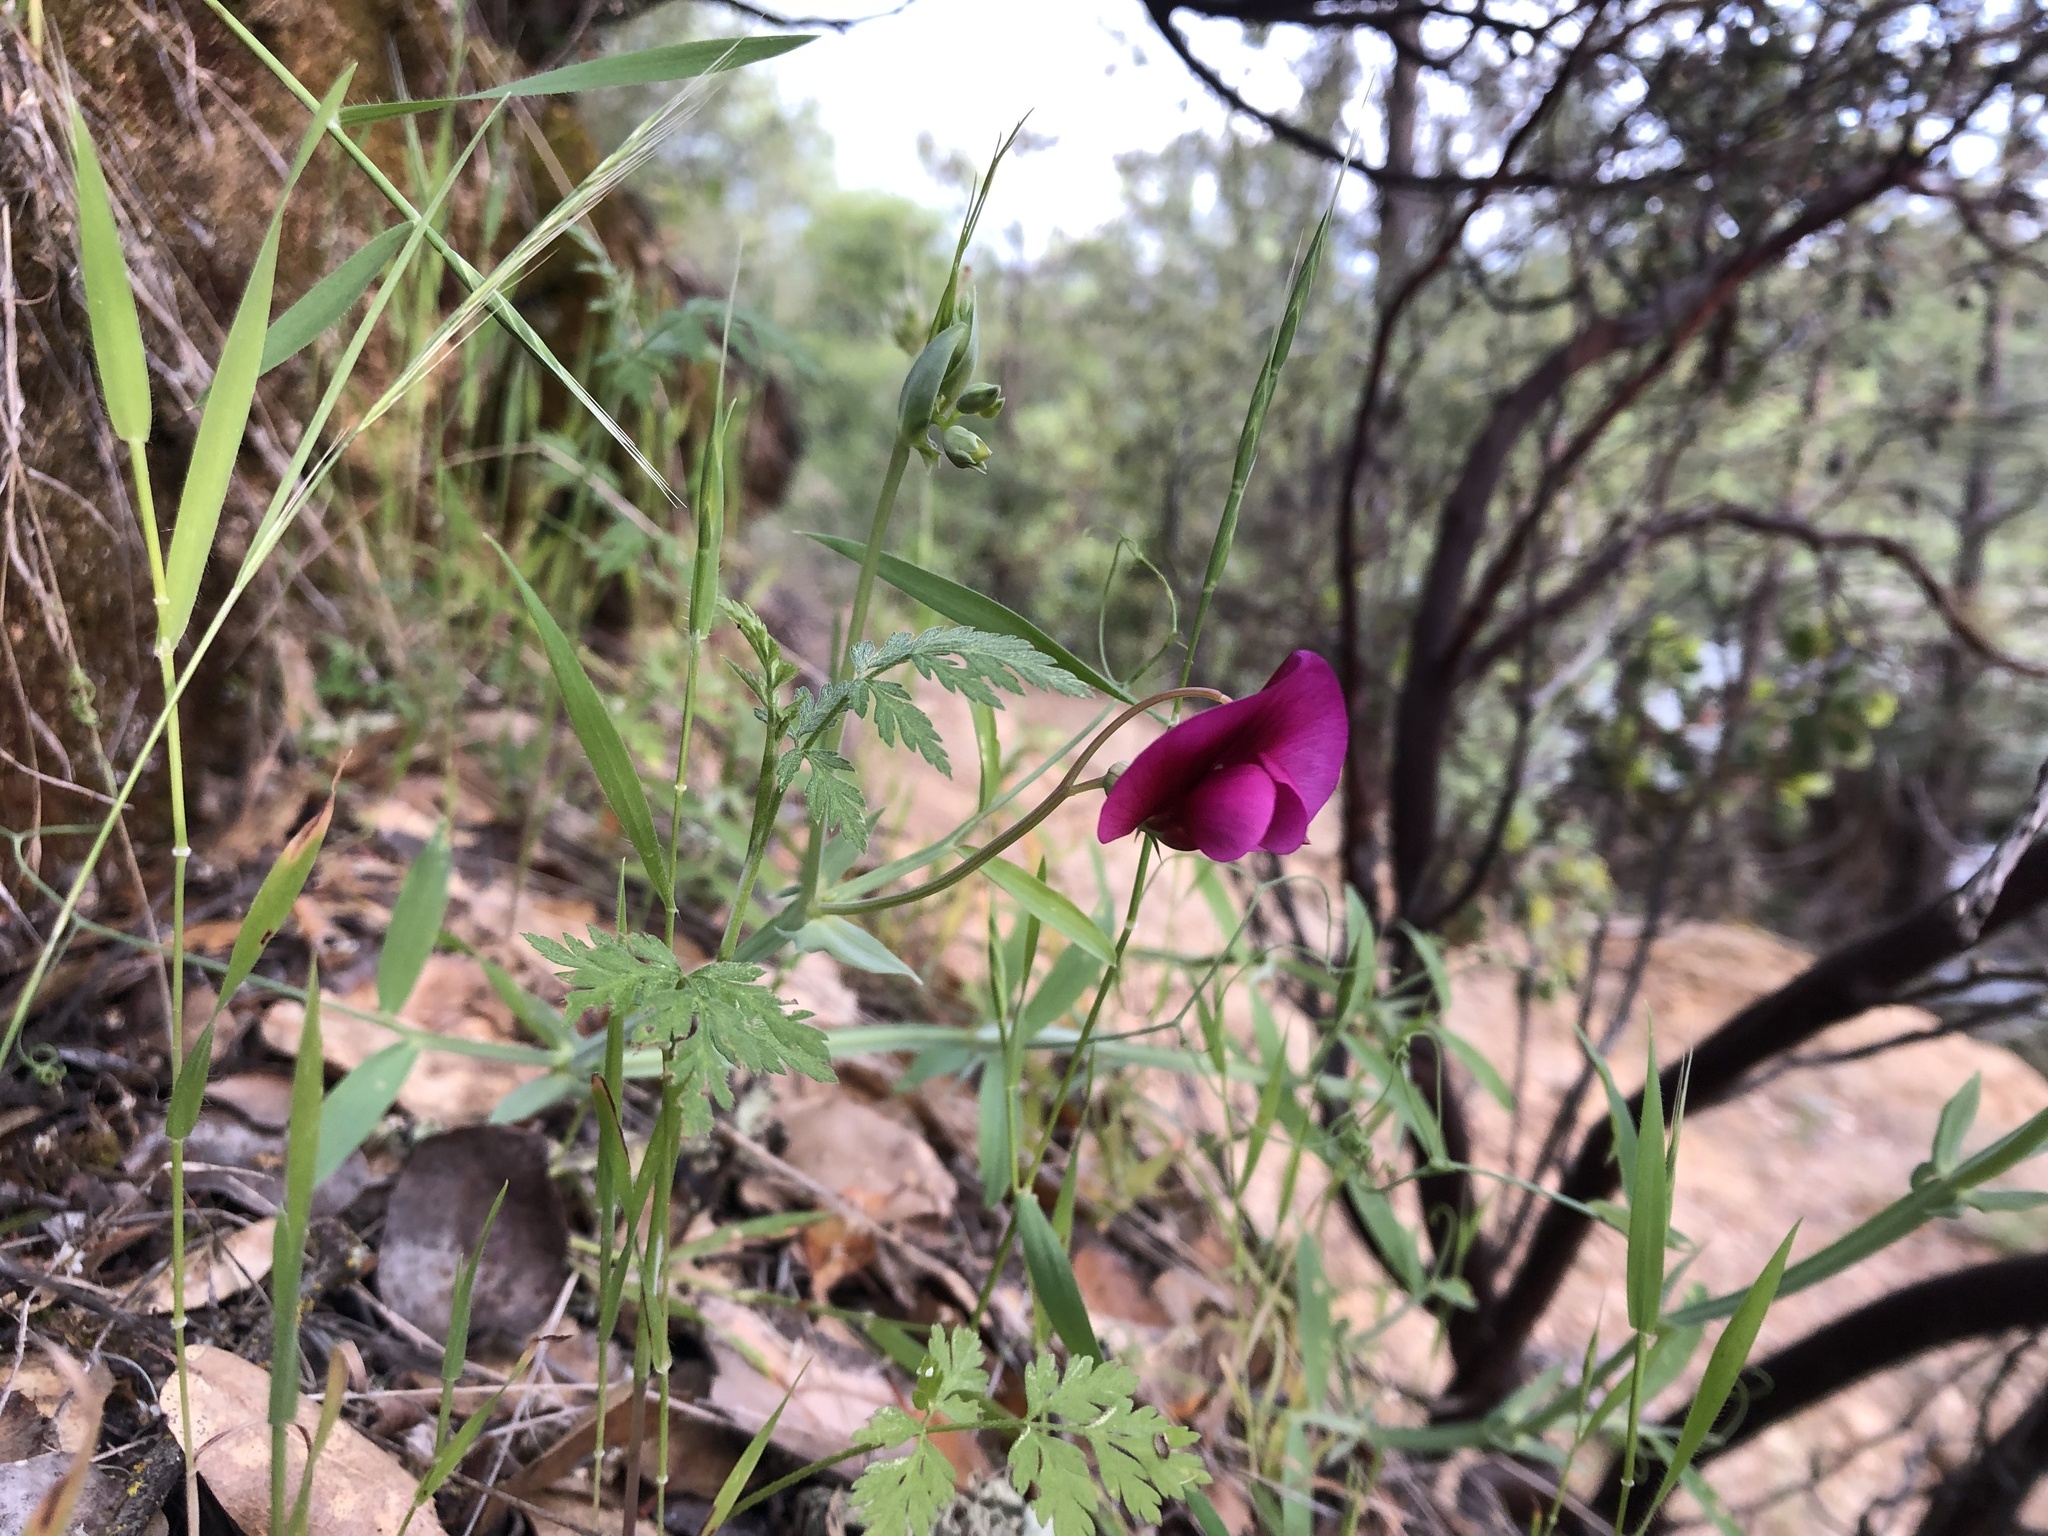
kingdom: Plantae
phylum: Tracheophyta
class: Magnoliopsida
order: Fabales
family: Fabaceae
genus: Lathyrus
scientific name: Lathyrus tingitanus
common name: Tangier pea
